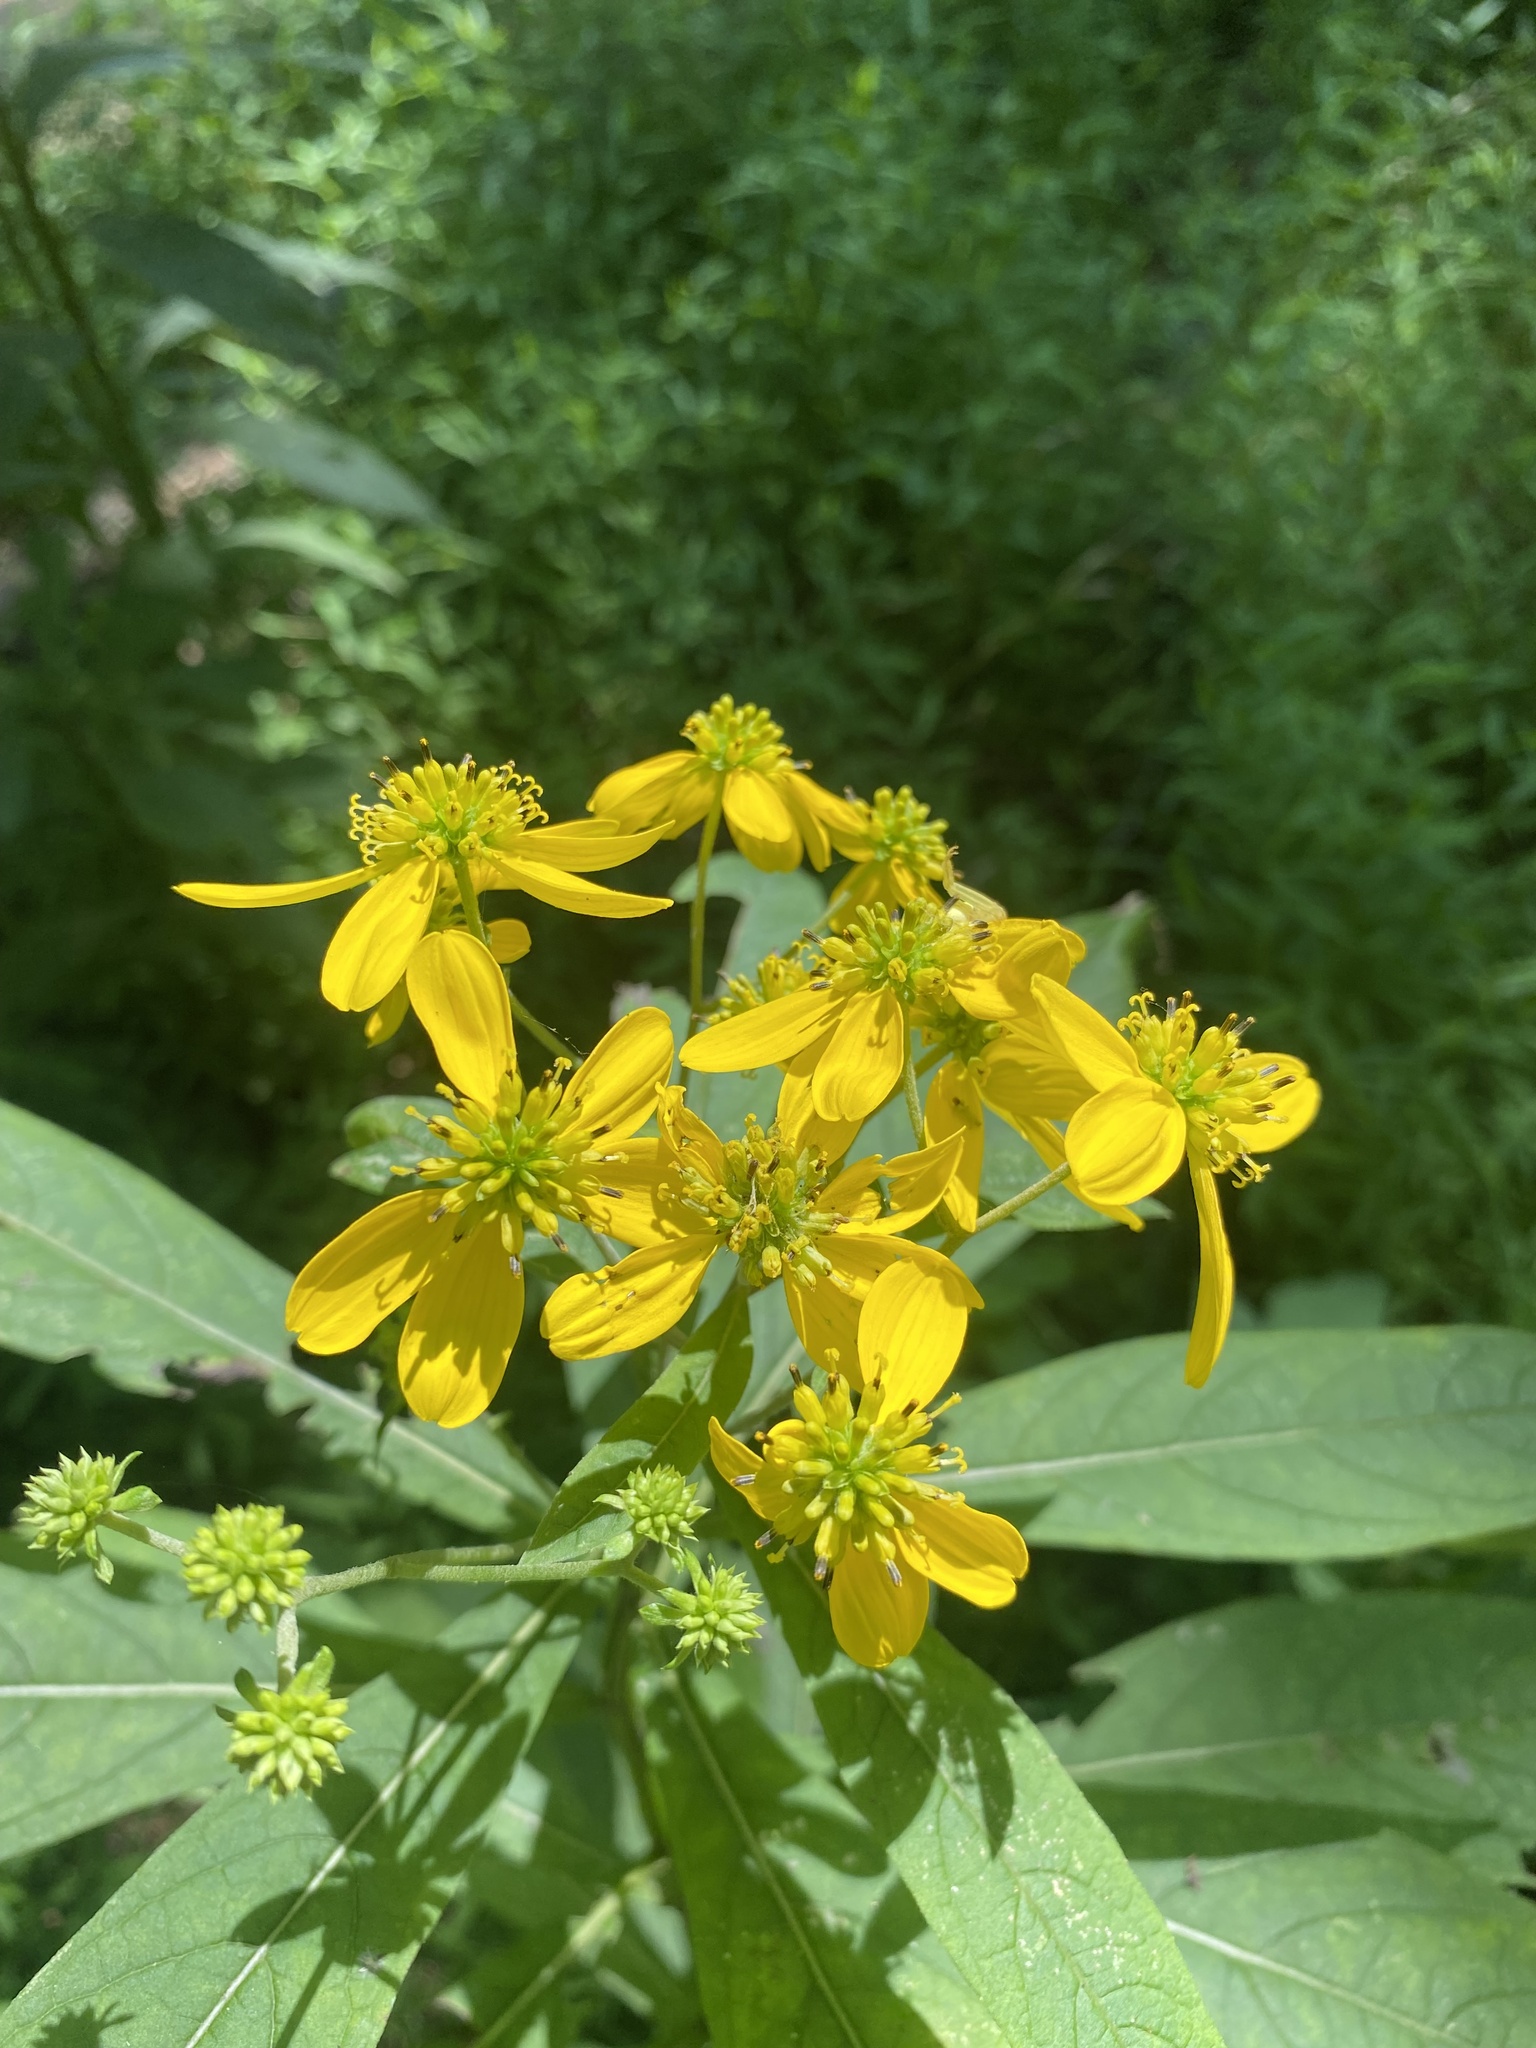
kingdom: Plantae
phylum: Tracheophyta
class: Magnoliopsida
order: Asterales
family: Asteraceae
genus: Verbesina
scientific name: Verbesina alternifolia
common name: Wingstem
